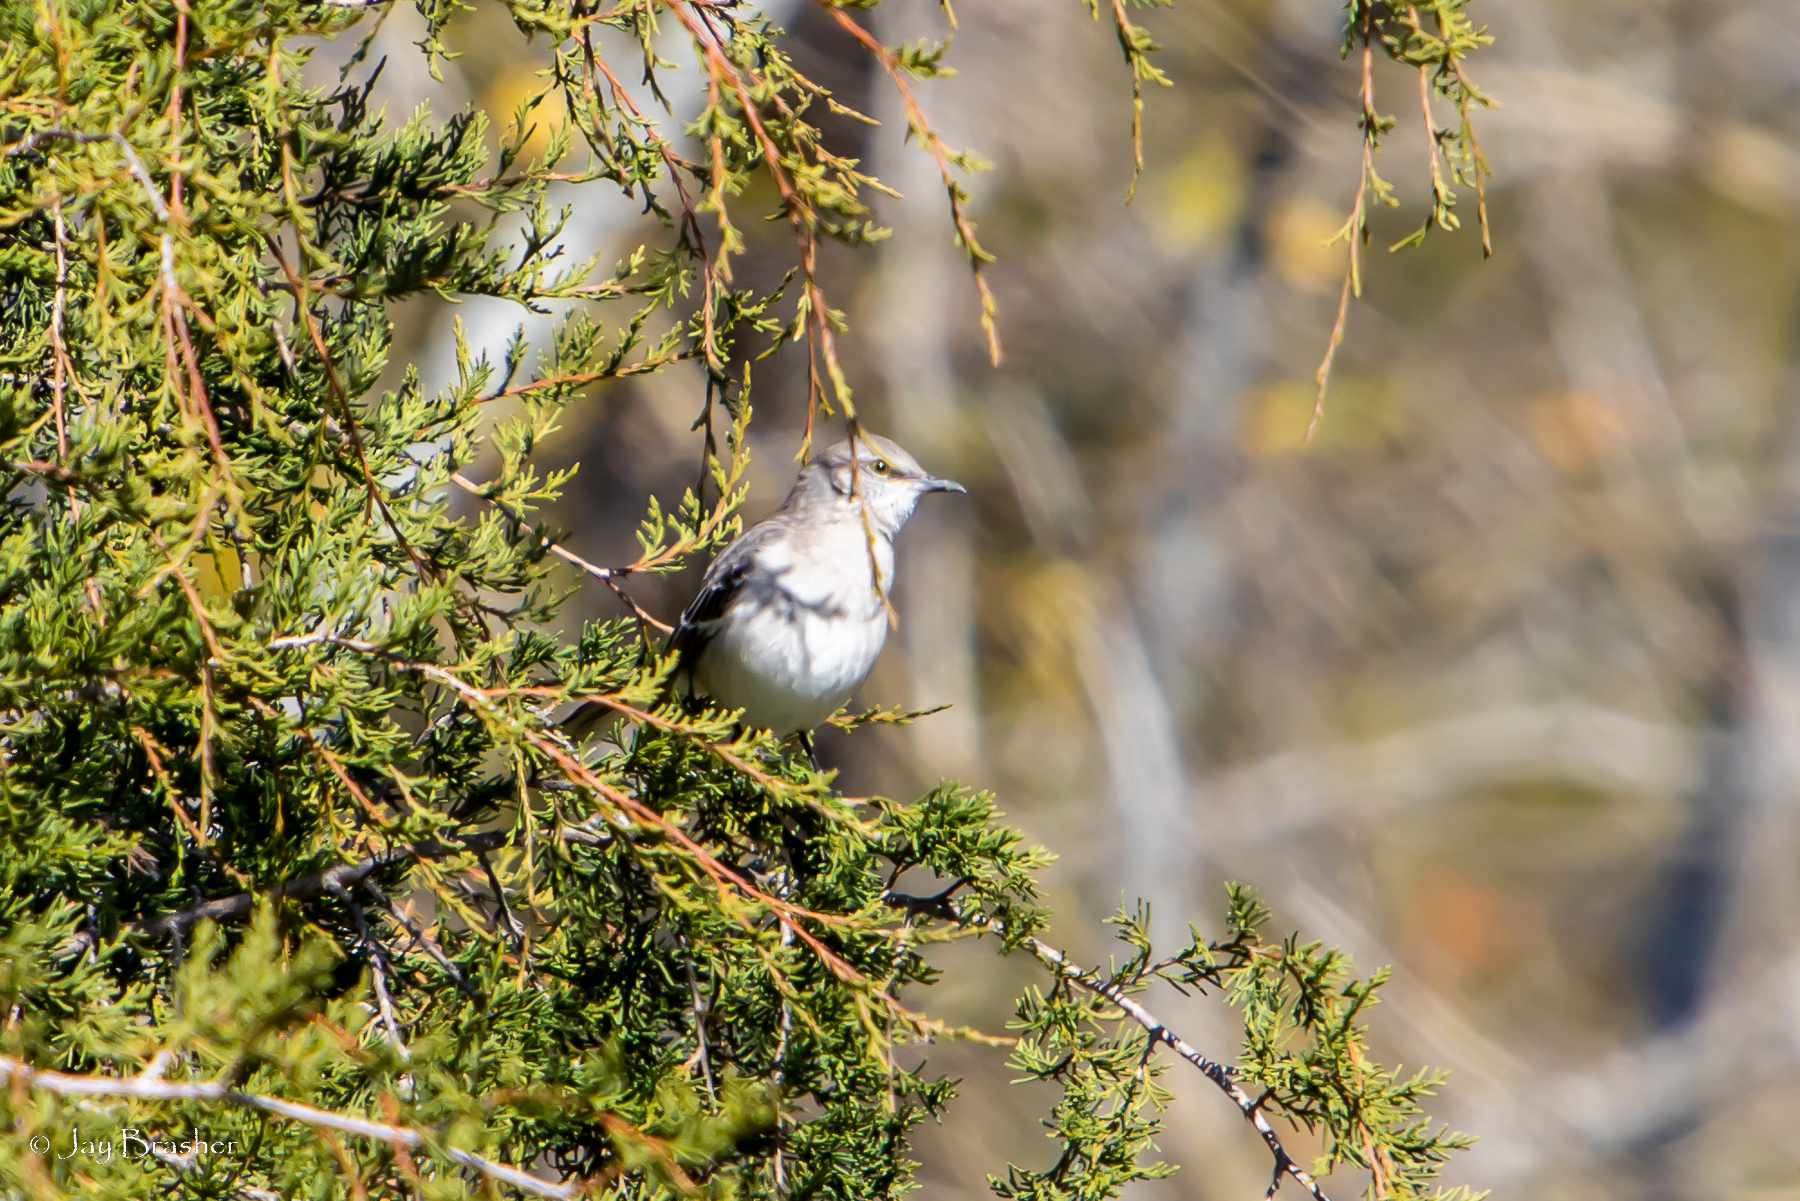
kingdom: Plantae
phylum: Tracheophyta
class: Pinopsida
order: Pinales
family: Cupressaceae
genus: Juniperus
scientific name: Juniperus virginiana
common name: Red juniper
